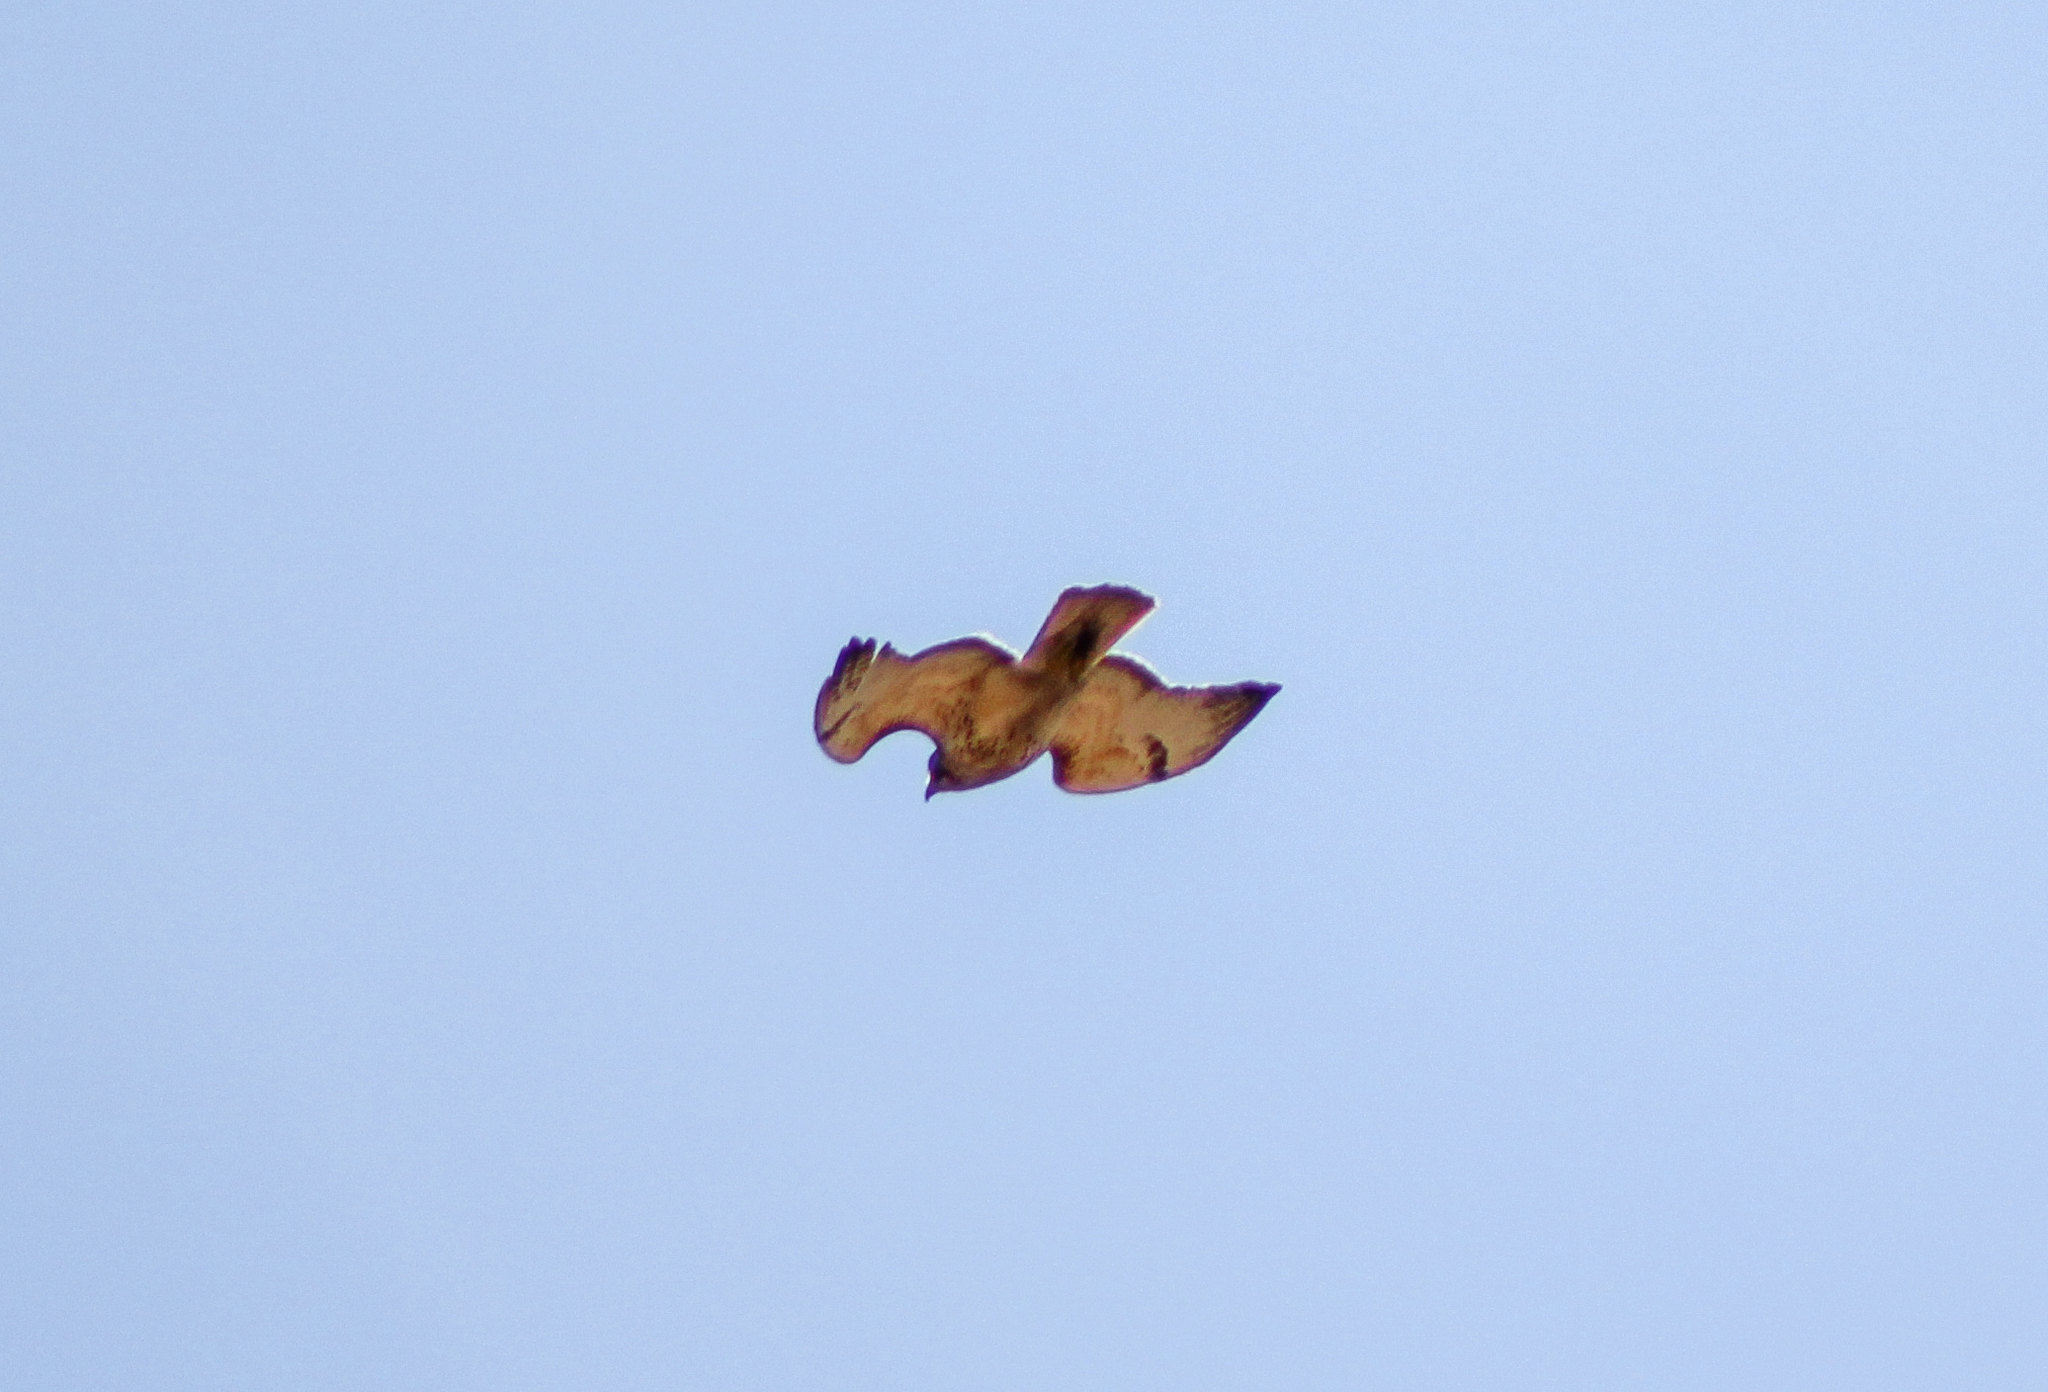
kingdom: Animalia
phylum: Chordata
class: Aves
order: Accipitriformes
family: Accipitridae
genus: Buteo
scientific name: Buteo jamaicensis
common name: Red-tailed hawk
